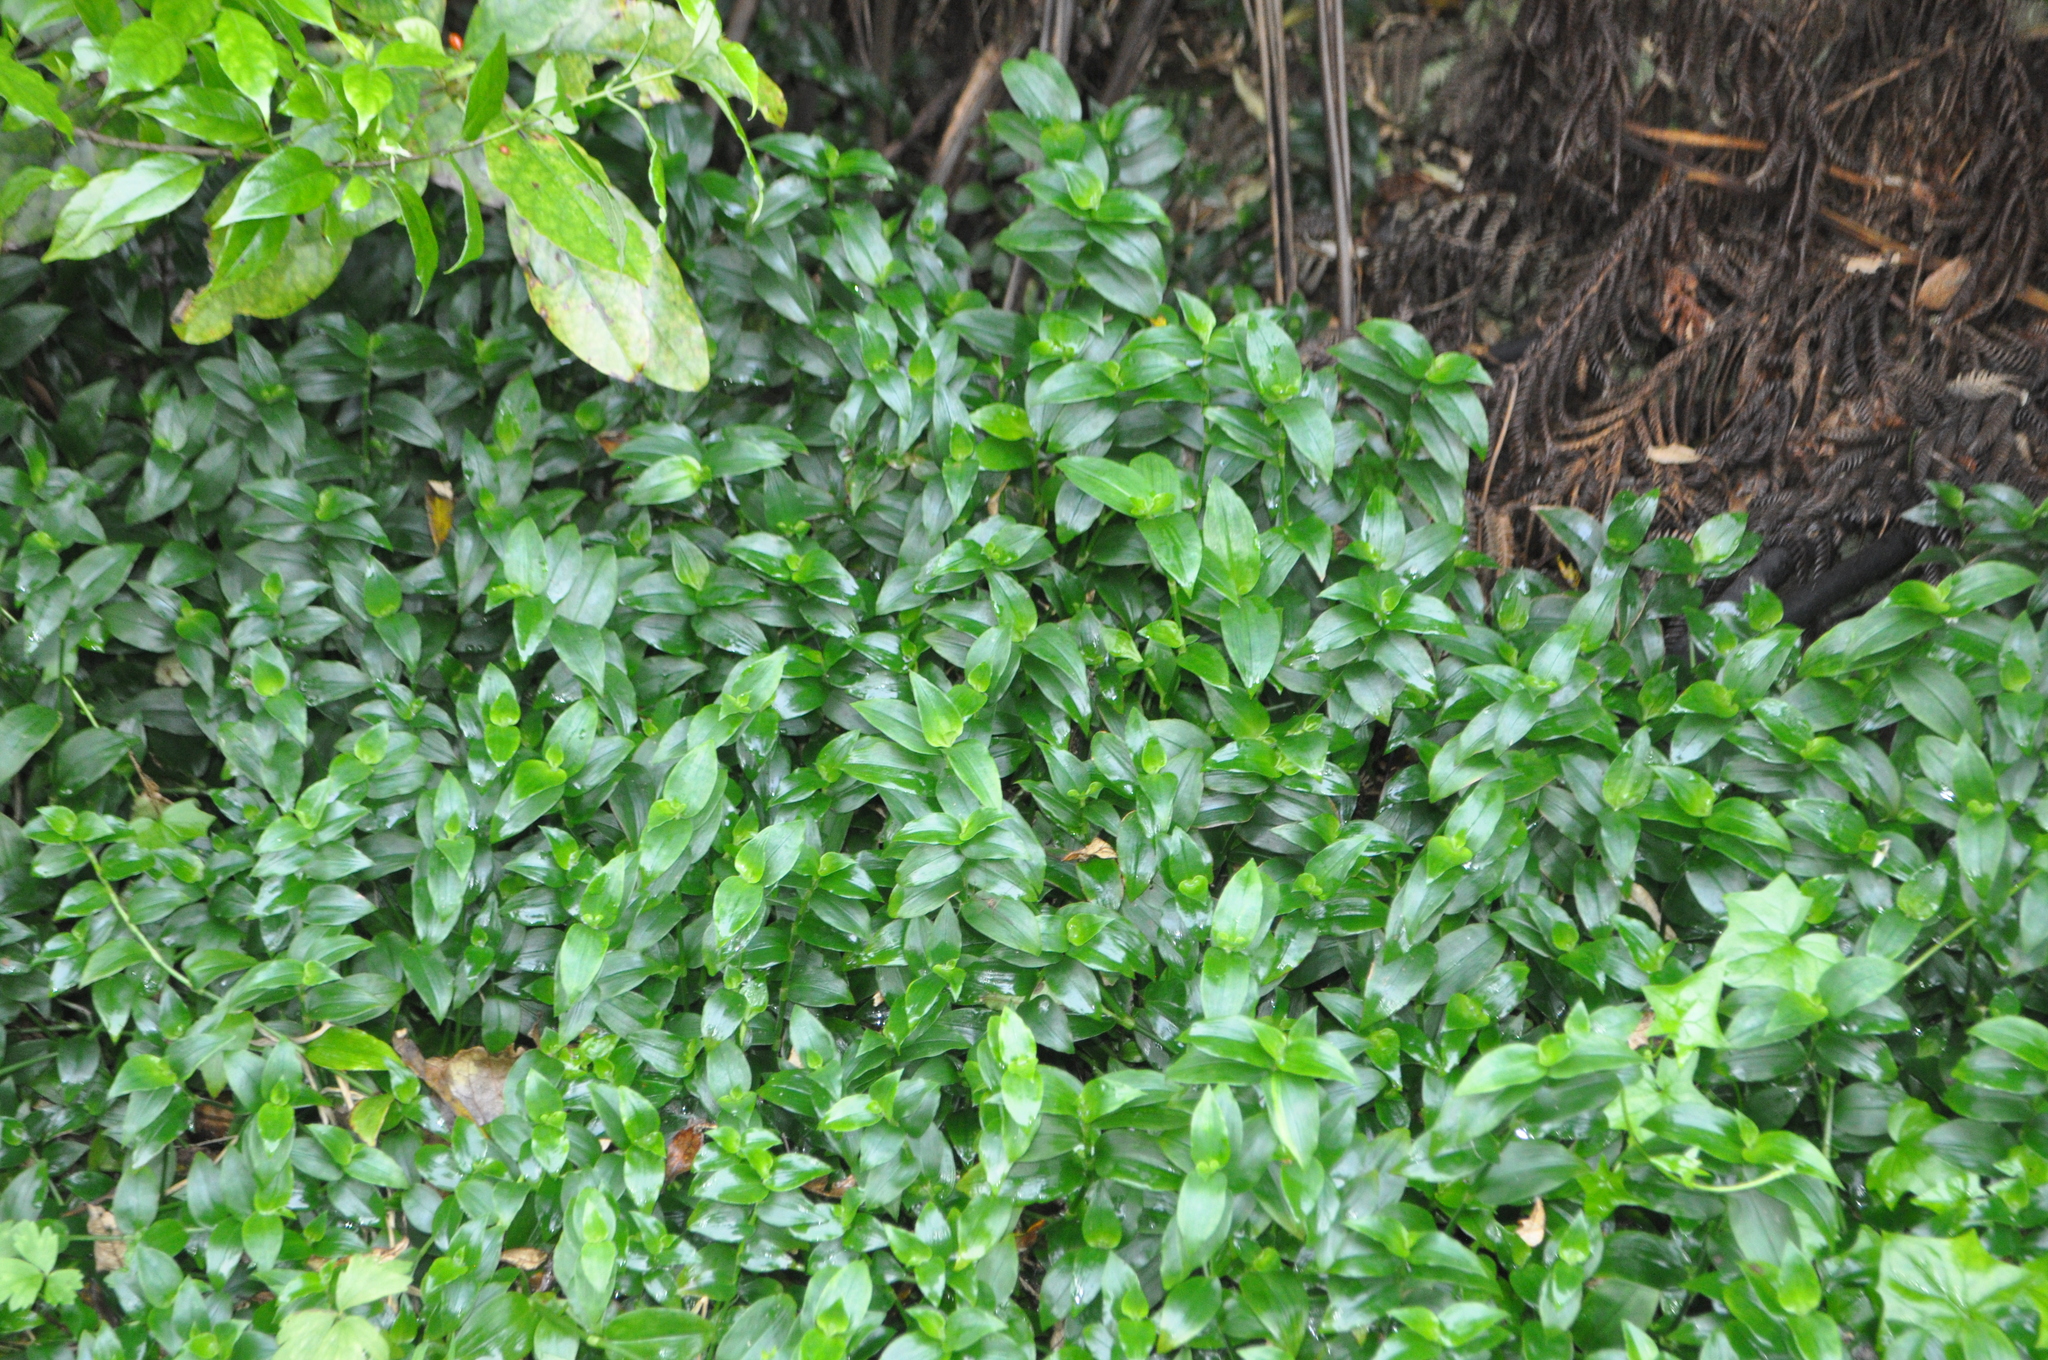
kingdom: Plantae
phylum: Tracheophyta
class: Liliopsida
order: Commelinales
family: Commelinaceae
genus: Tradescantia
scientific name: Tradescantia fluminensis
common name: Wandering-jew
